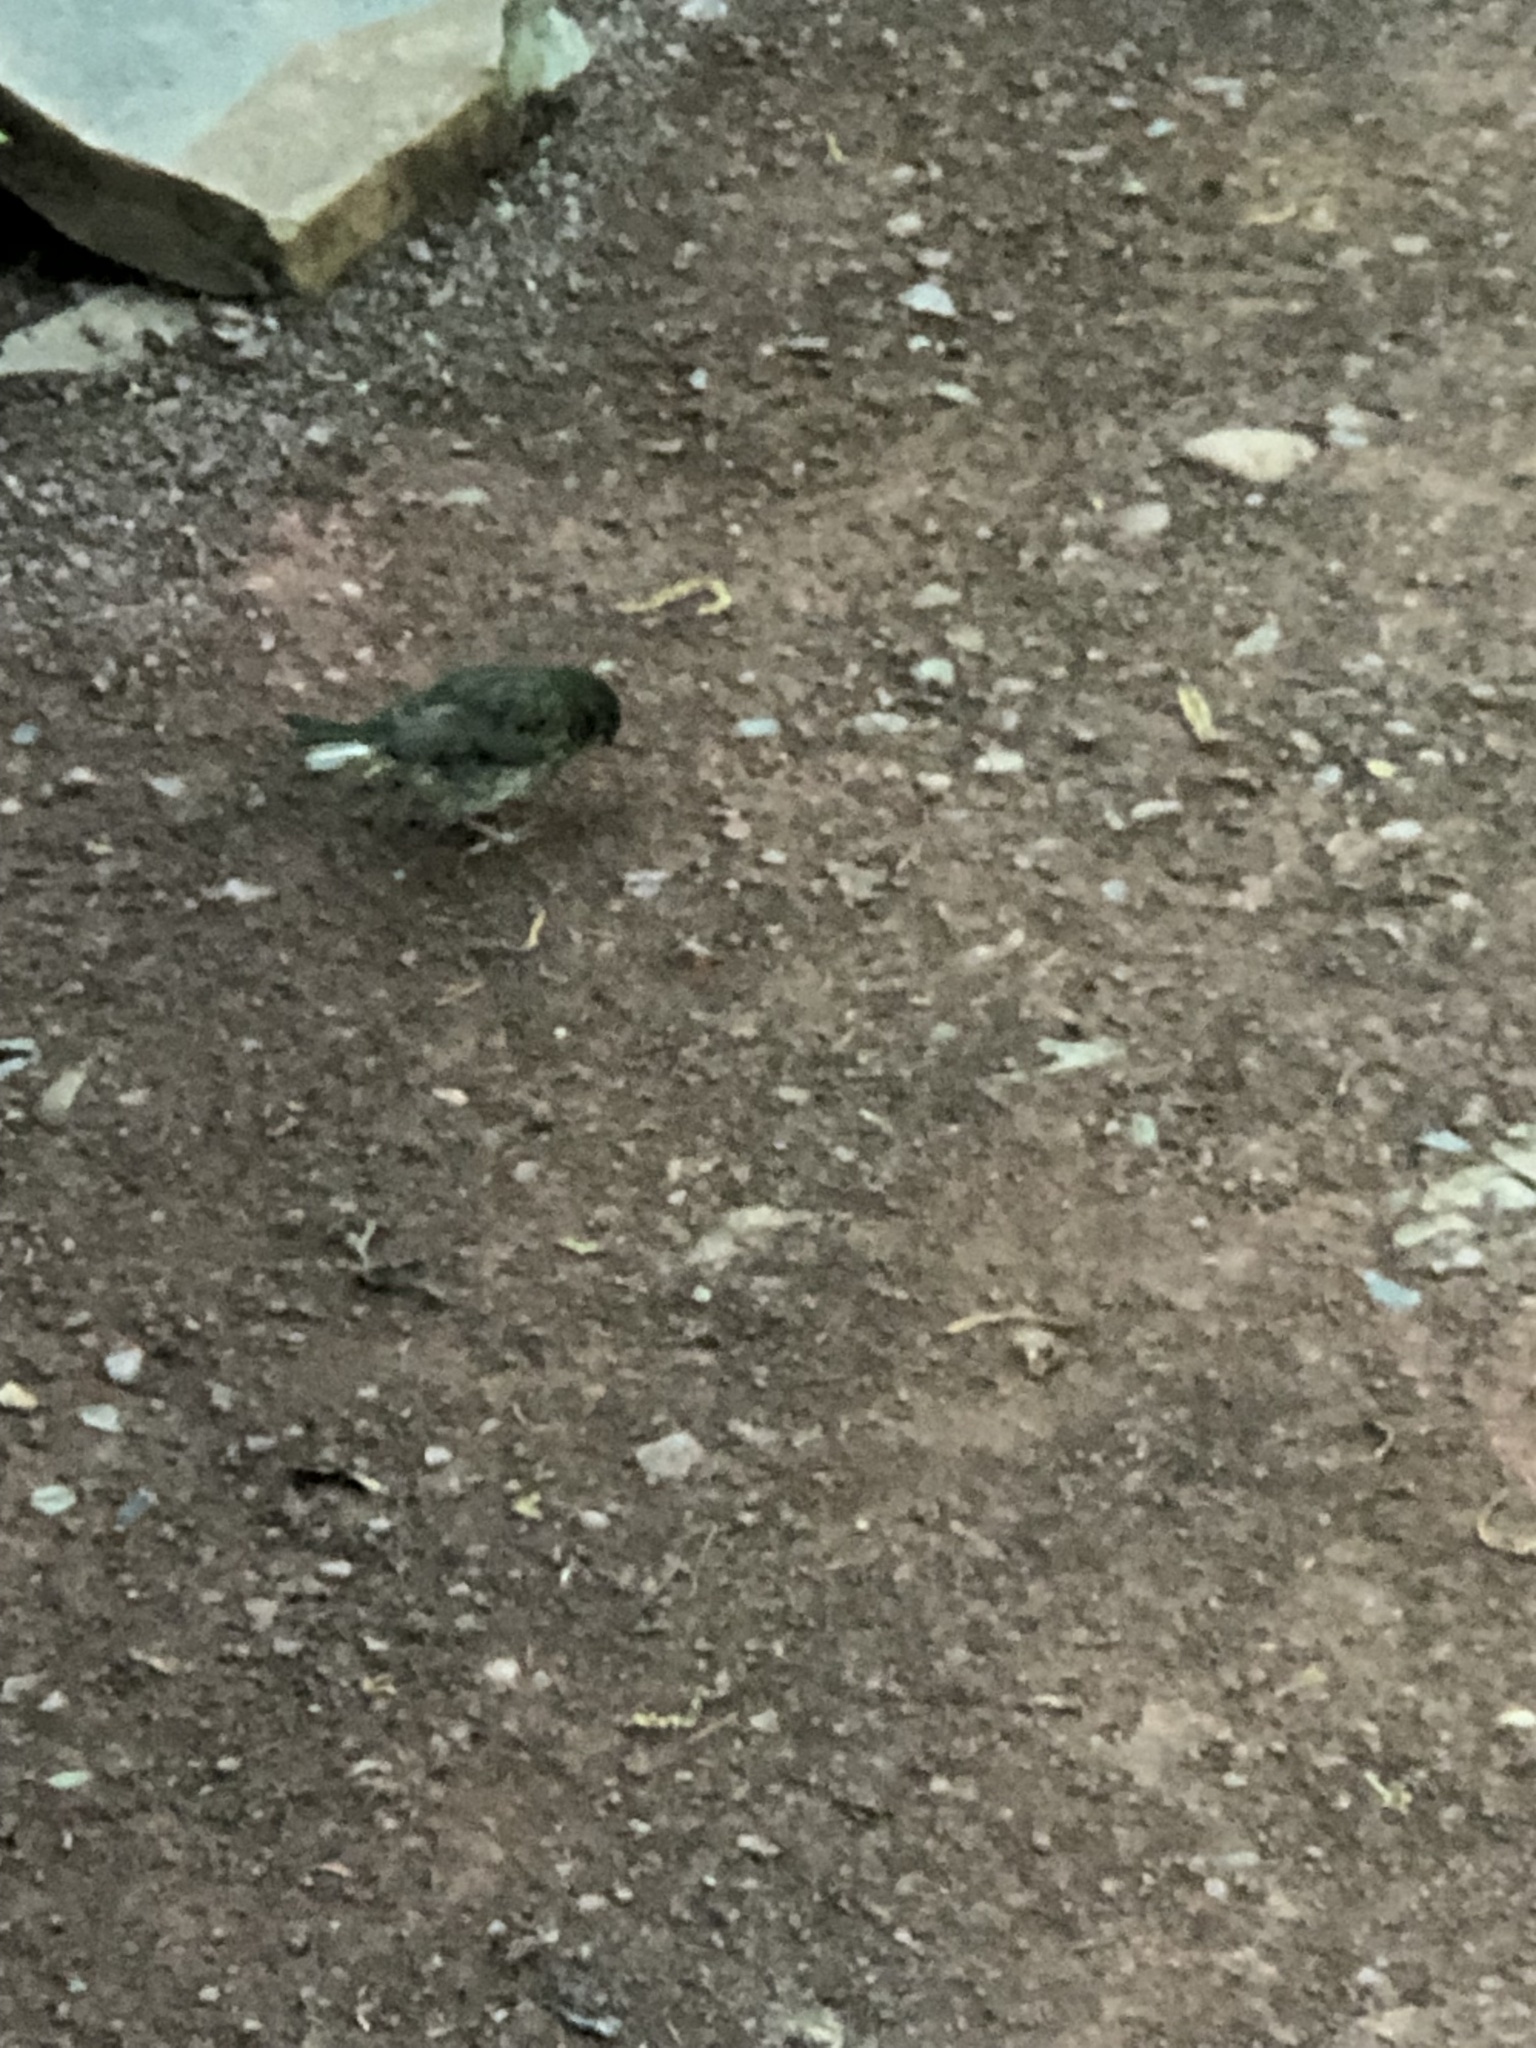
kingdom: Animalia
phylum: Chordata
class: Aves
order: Passeriformes
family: Cardinalidae
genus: Cardinalis
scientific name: Cardinalis cardinalis
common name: Northern cardinal
